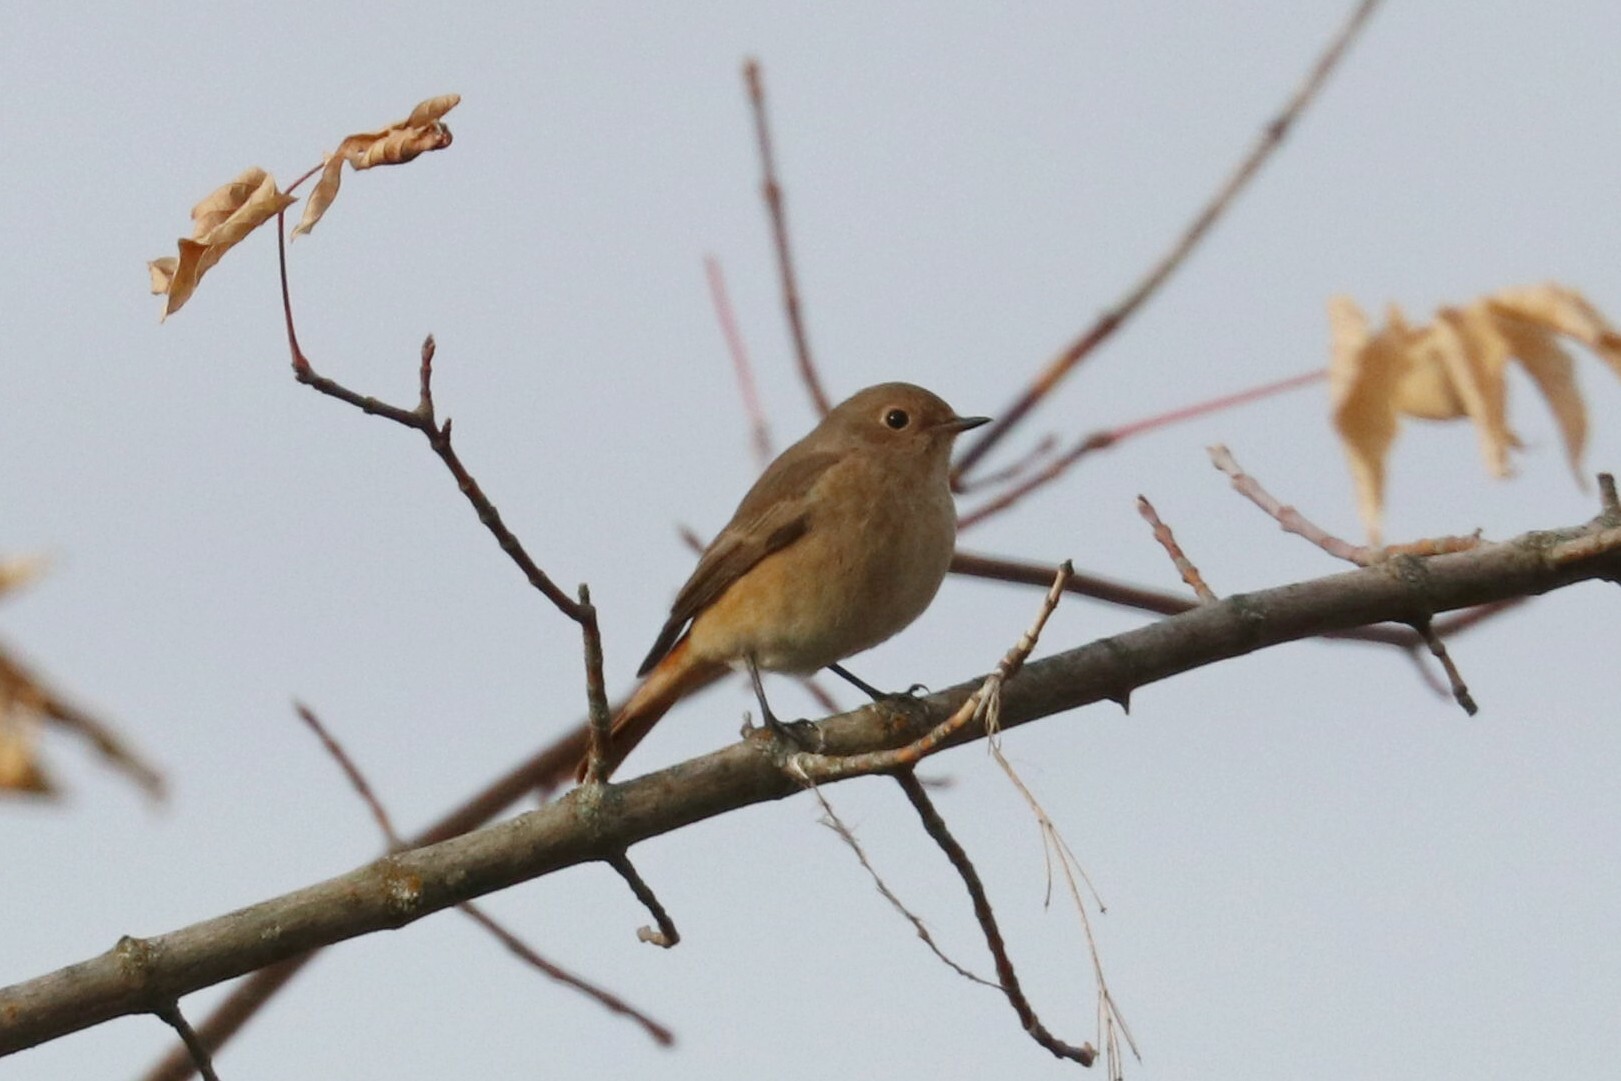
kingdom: Animalia
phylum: Chordata
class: Aves
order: Passeriformes
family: Muscicapidae
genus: Phoenicurus
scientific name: Phoenicurus phoenicurus
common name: Common redstart
